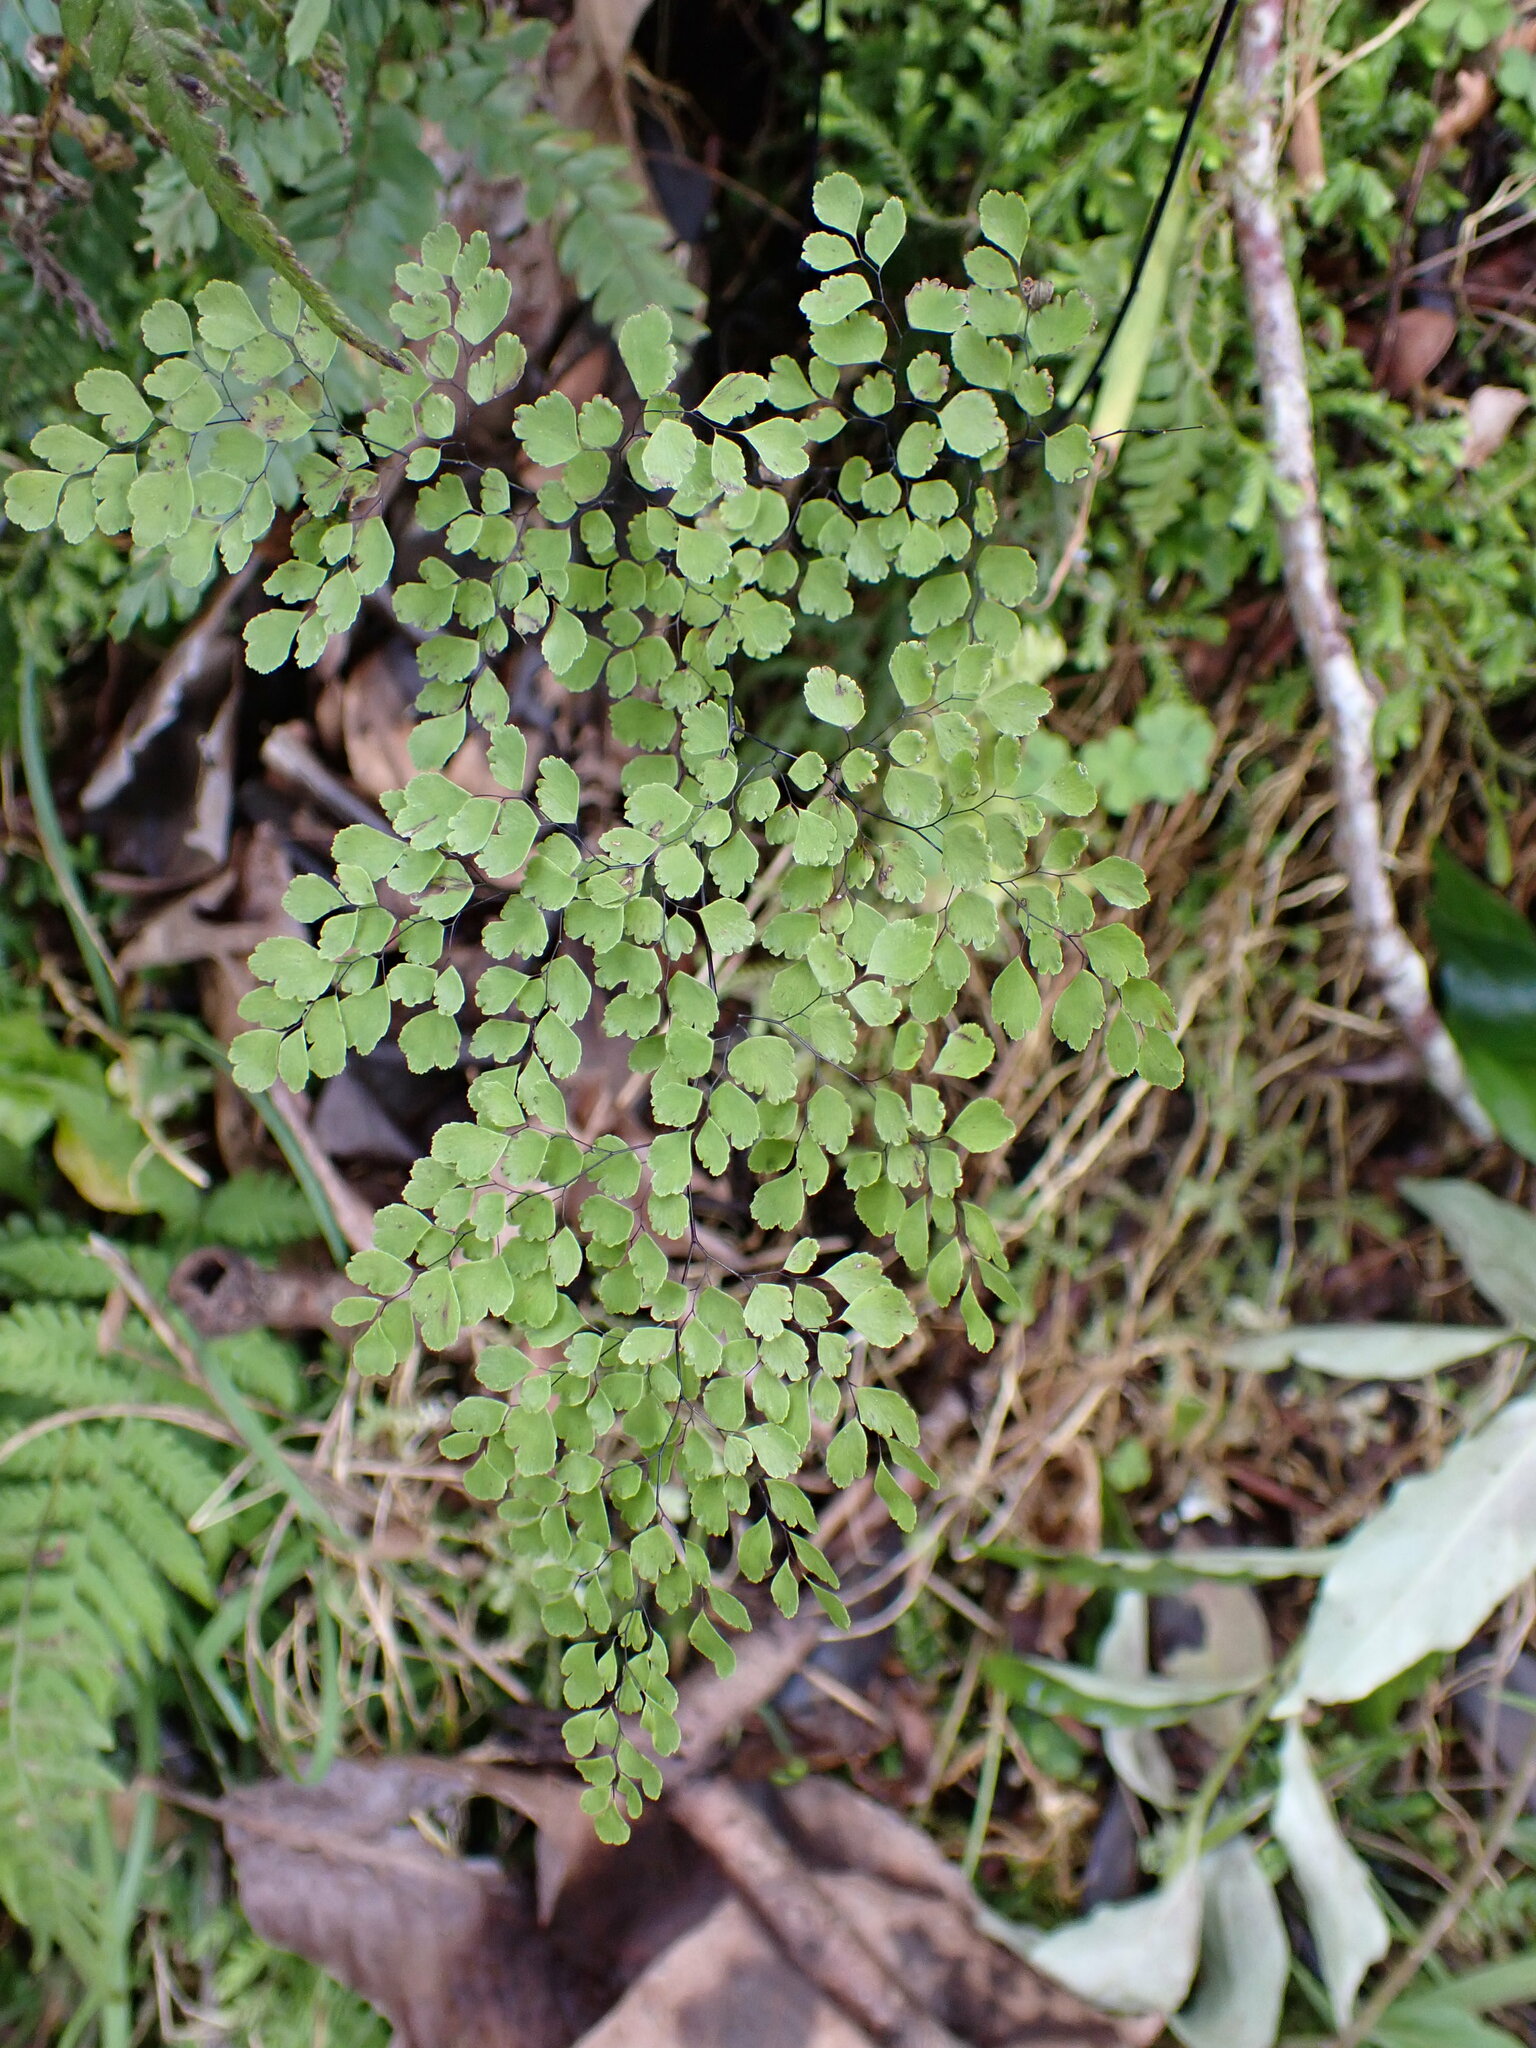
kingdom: Plantae
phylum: Tracheophyta
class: Polypodiopsida
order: Polypodiales
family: Pteridaceae
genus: Adiantum
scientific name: Adiantum raddianum
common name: Delta maidenhair fern
